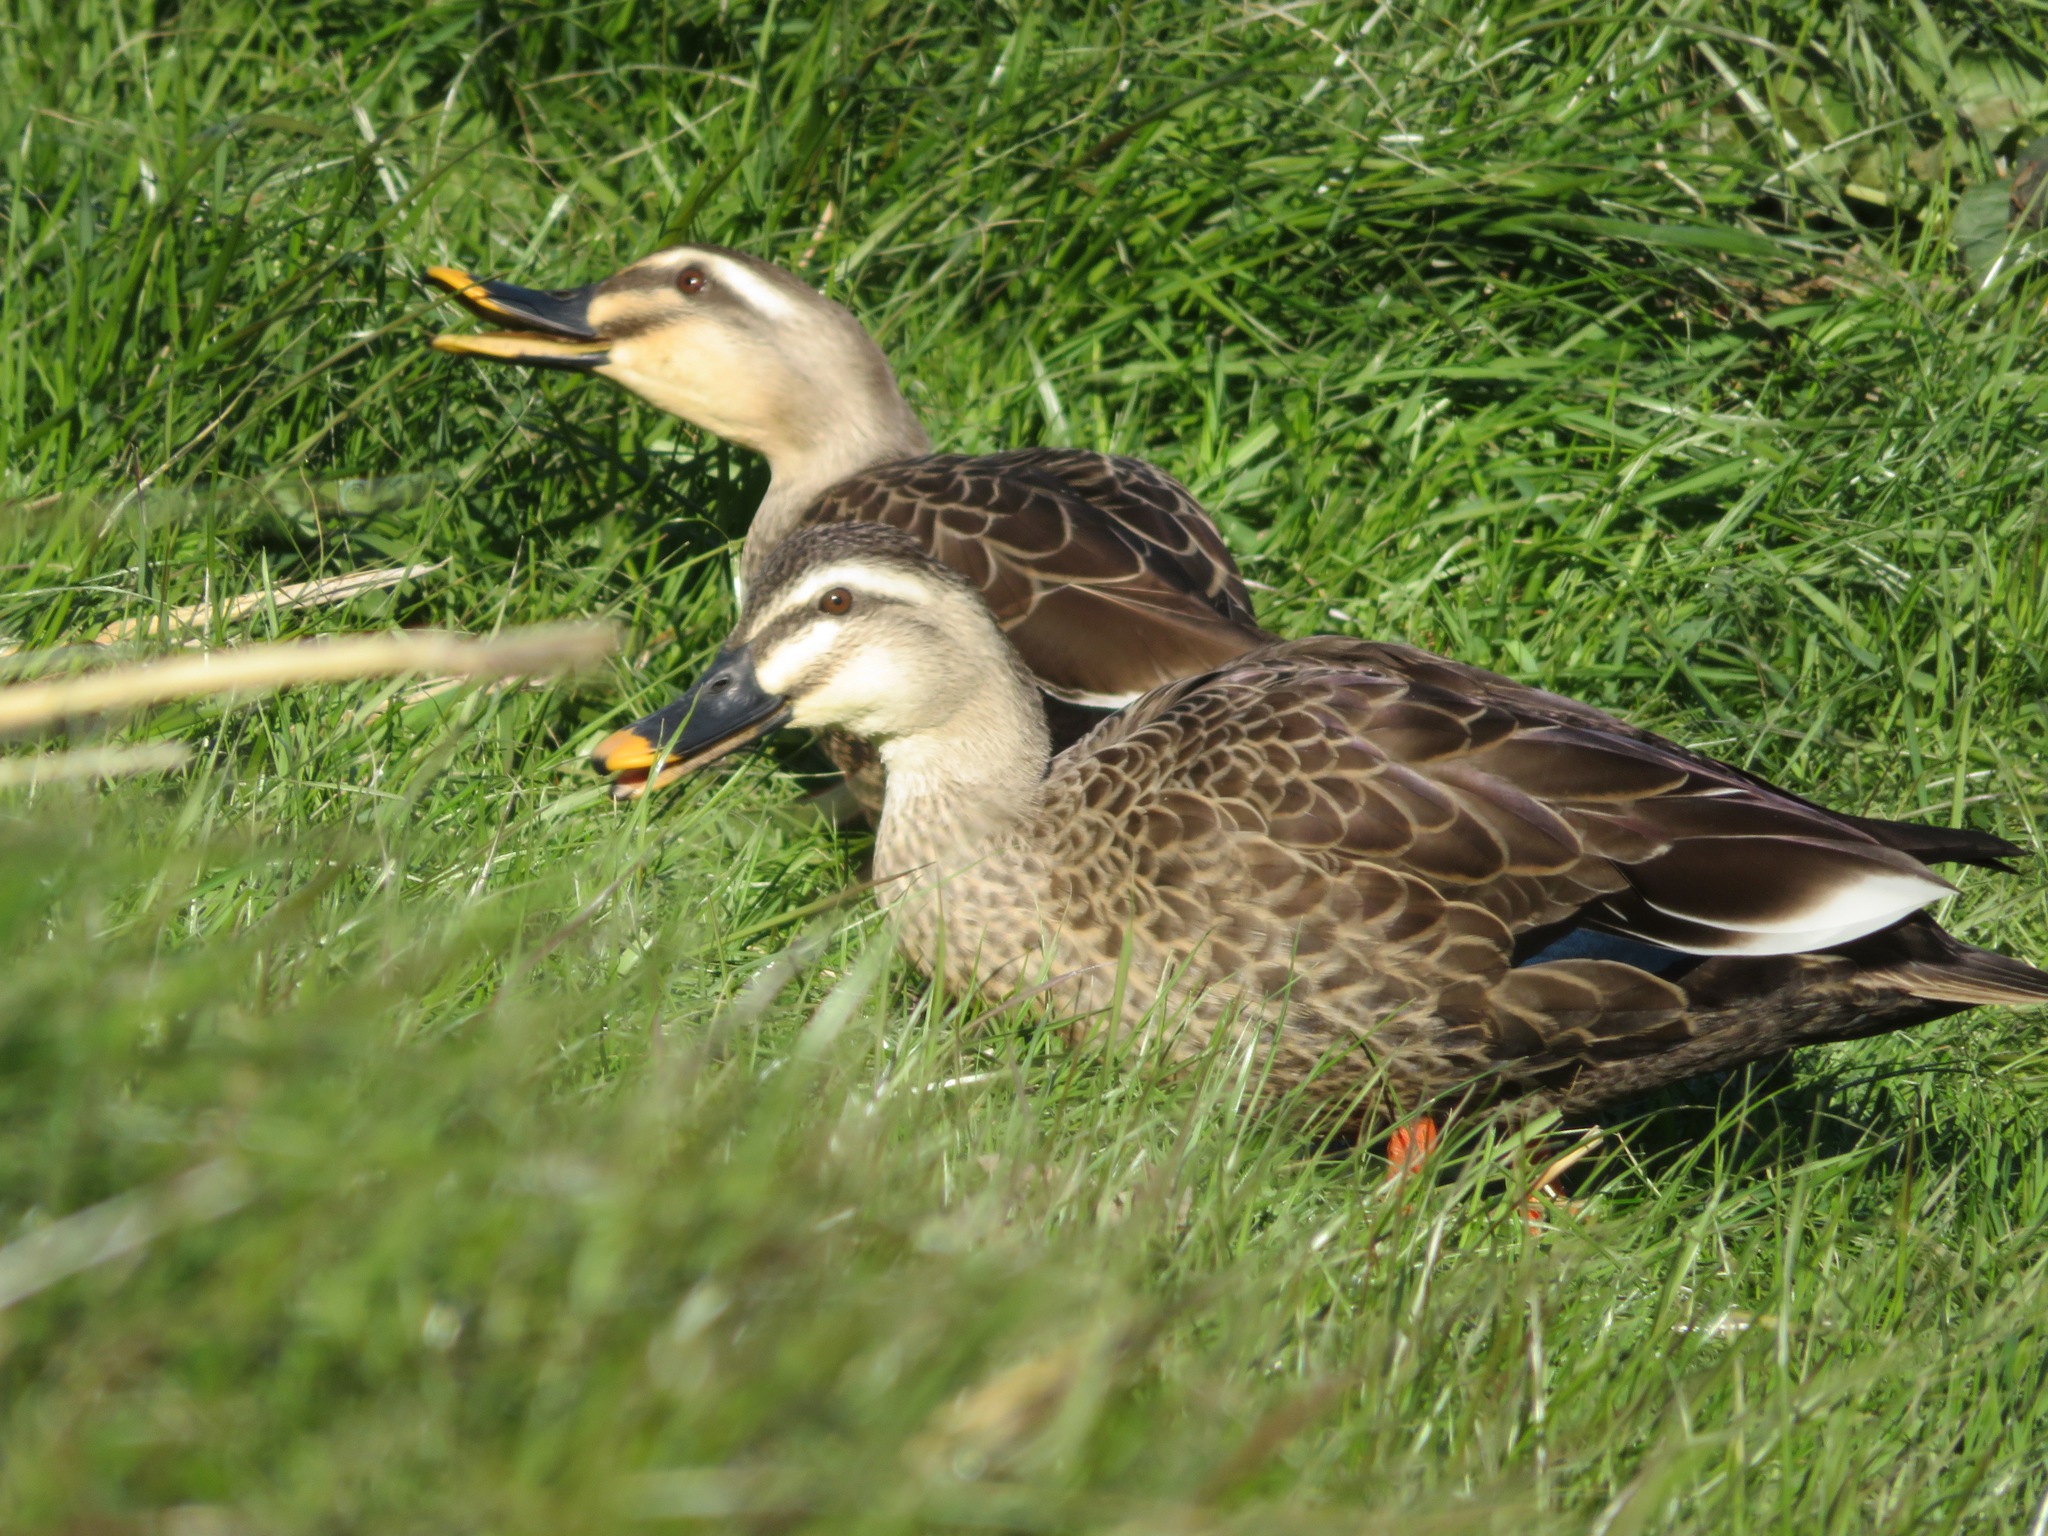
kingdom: Animalia
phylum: Chordata
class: Aves
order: Anseriformes
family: Anatidae
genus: Anas
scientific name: Anas zonorhyncha
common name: Eastern spot-billed duck
